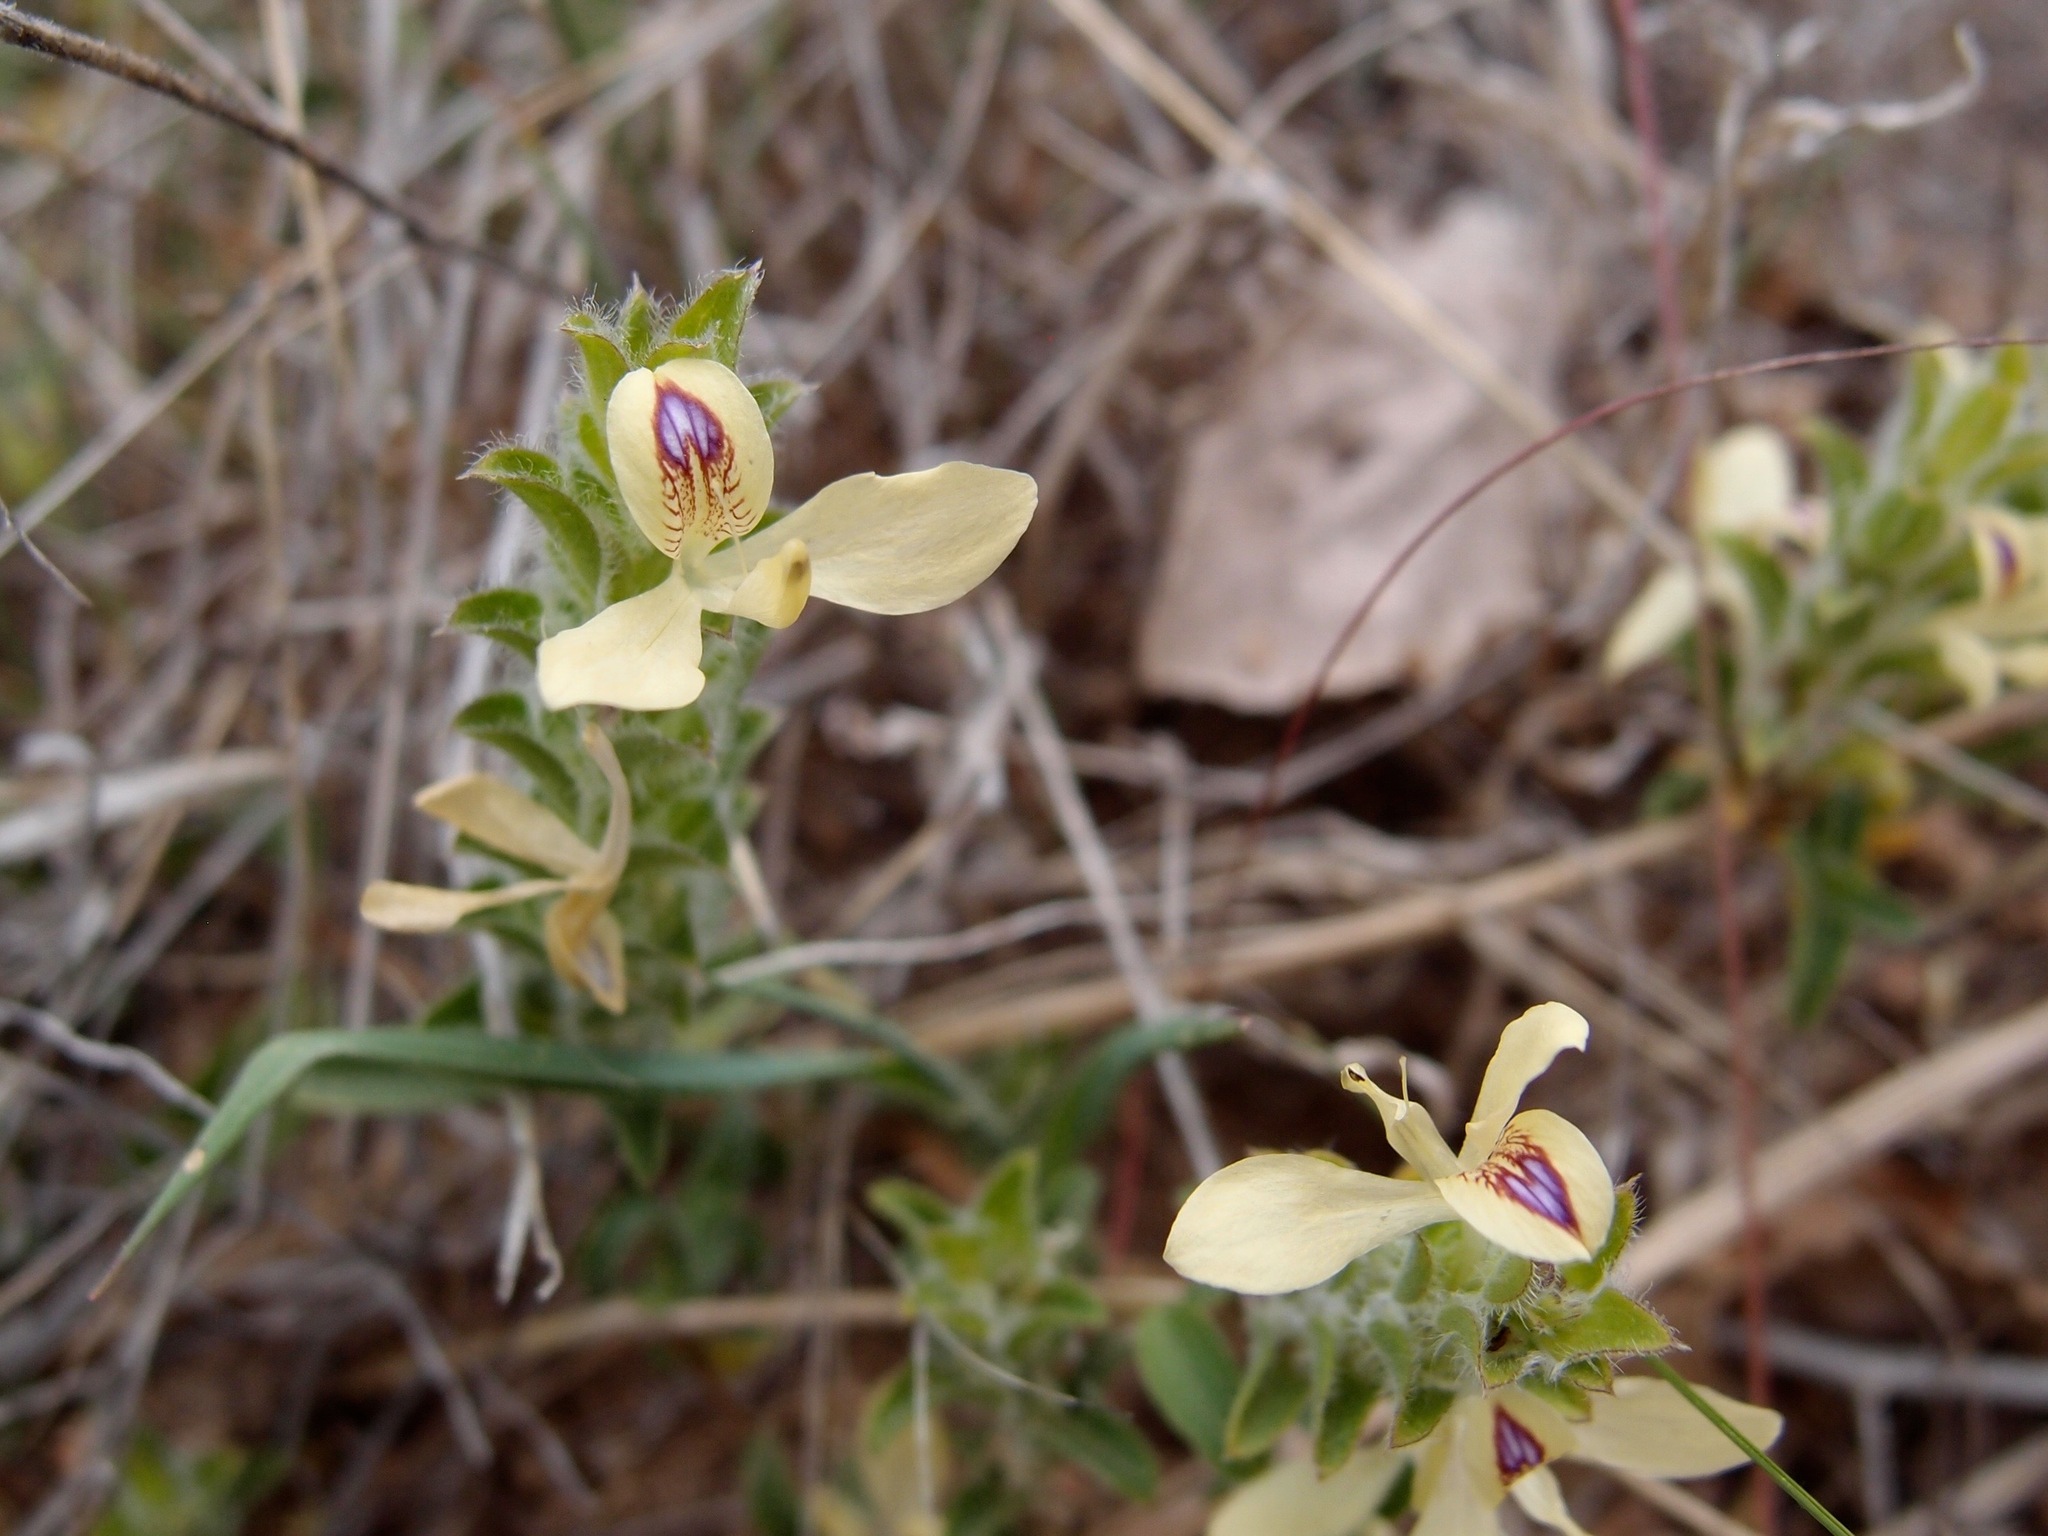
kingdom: Plantae
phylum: Tracheophyta
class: Magnoliopsida
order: Lamiales
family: Acanthaceae
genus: Tetramerium
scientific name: Tetramerium nervosum
